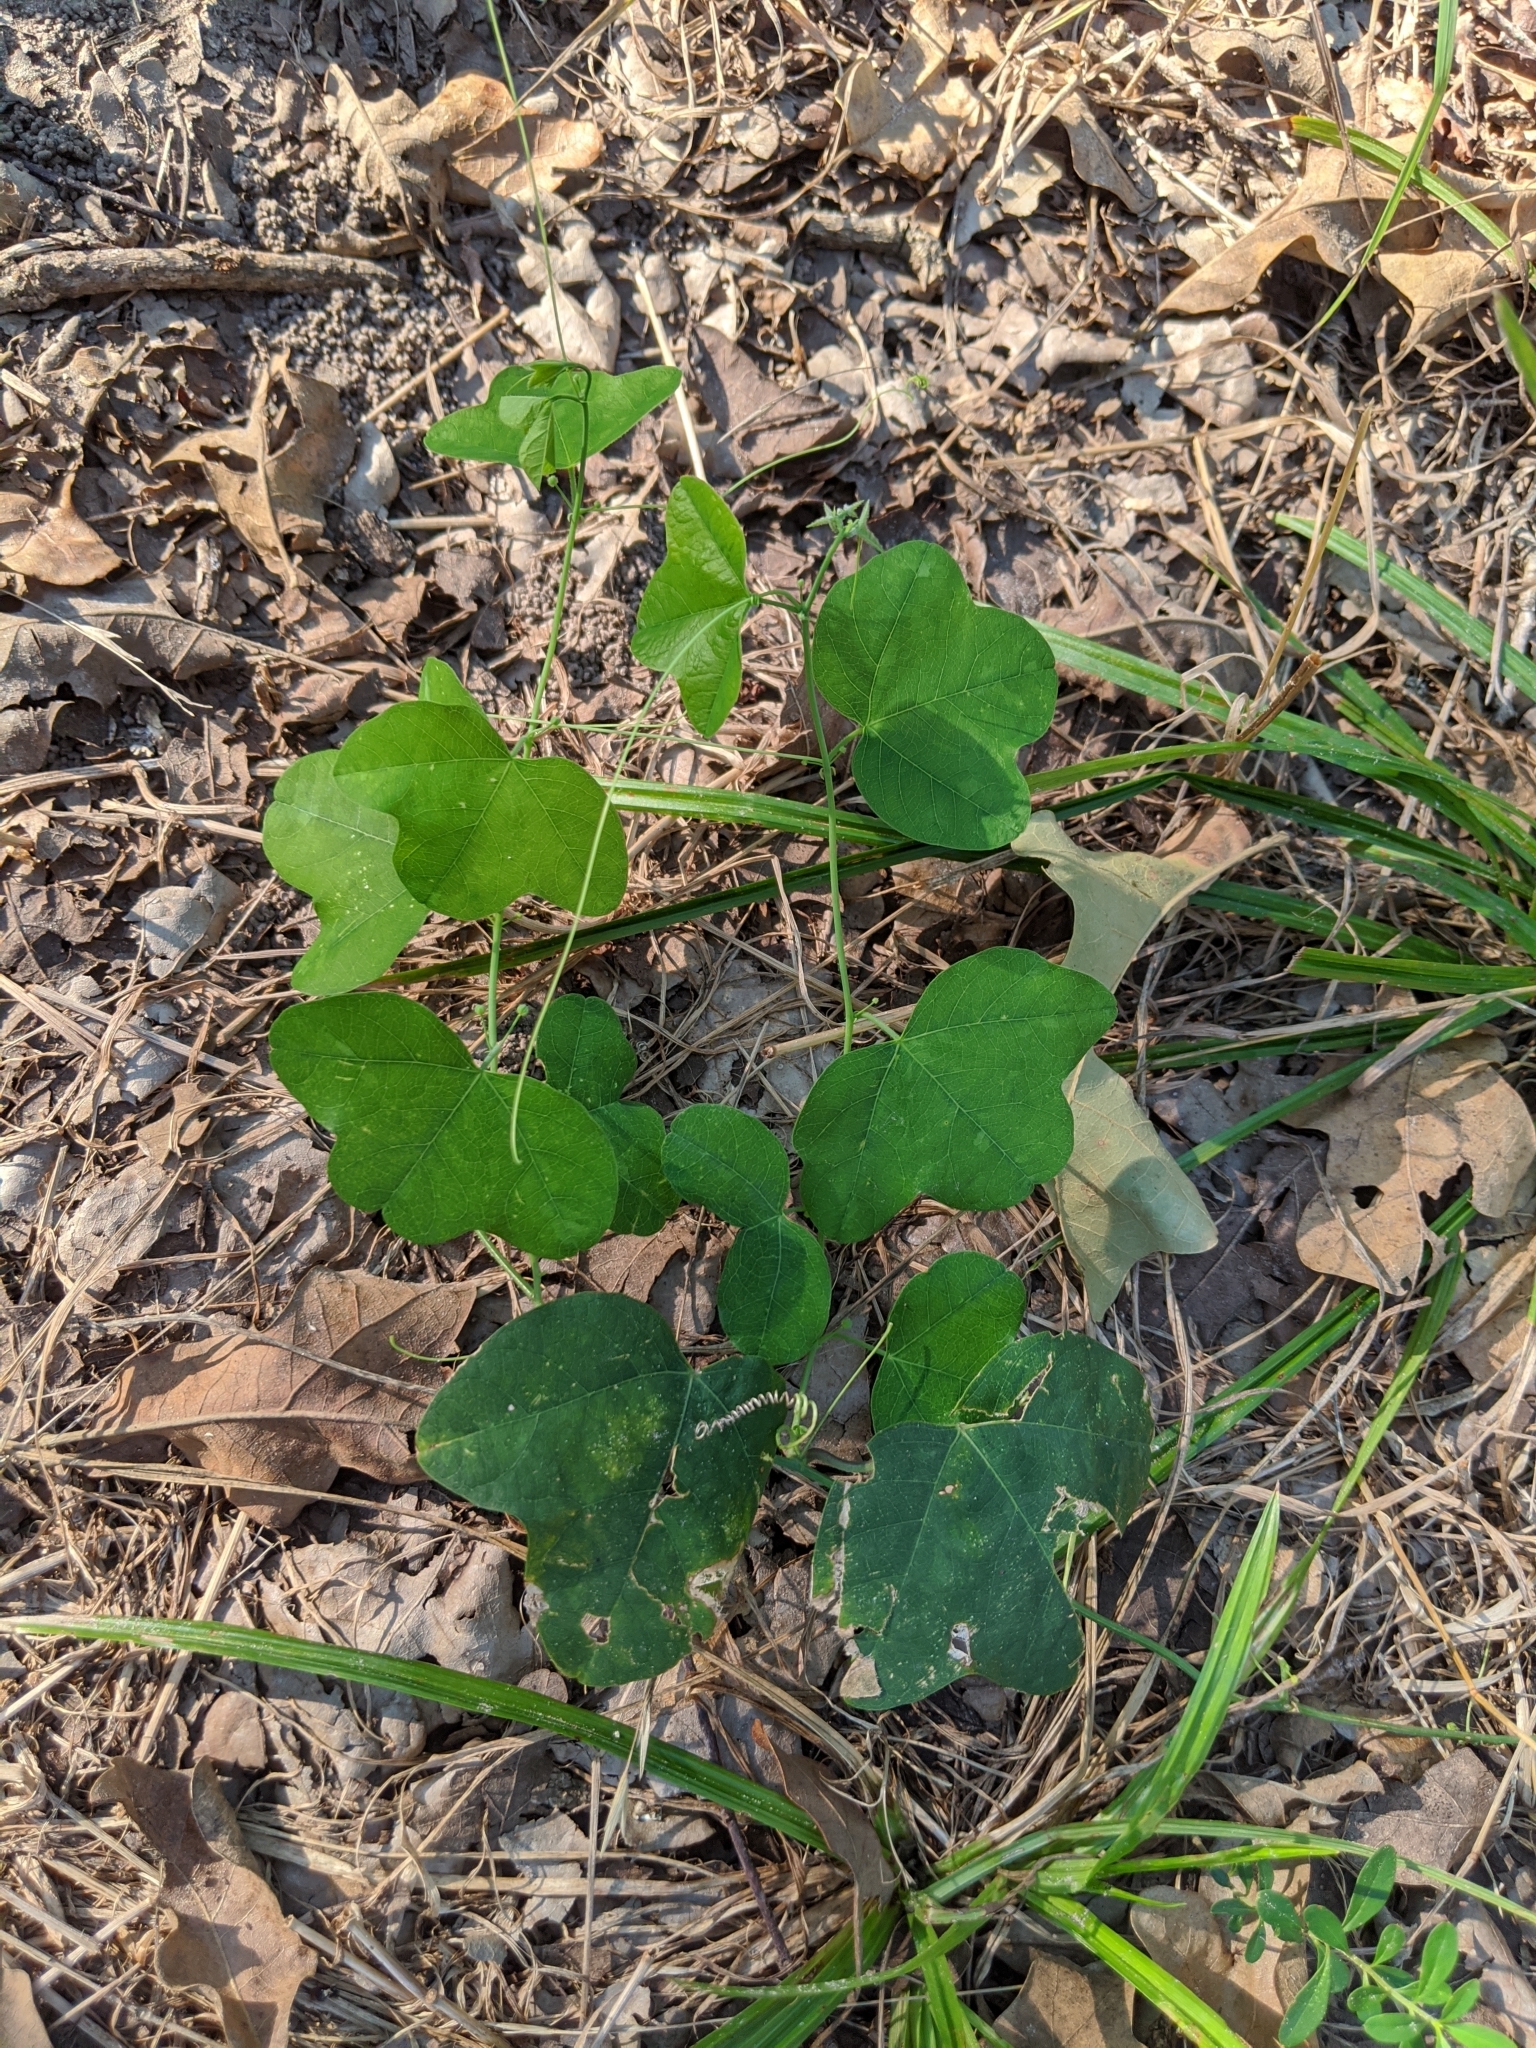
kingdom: Plantae
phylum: Tracheophyta
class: Magnoliopsida
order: Malpighiales
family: Passifloraceae
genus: Passiflora
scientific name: Passiflora lutea
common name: Yellow passionflower
